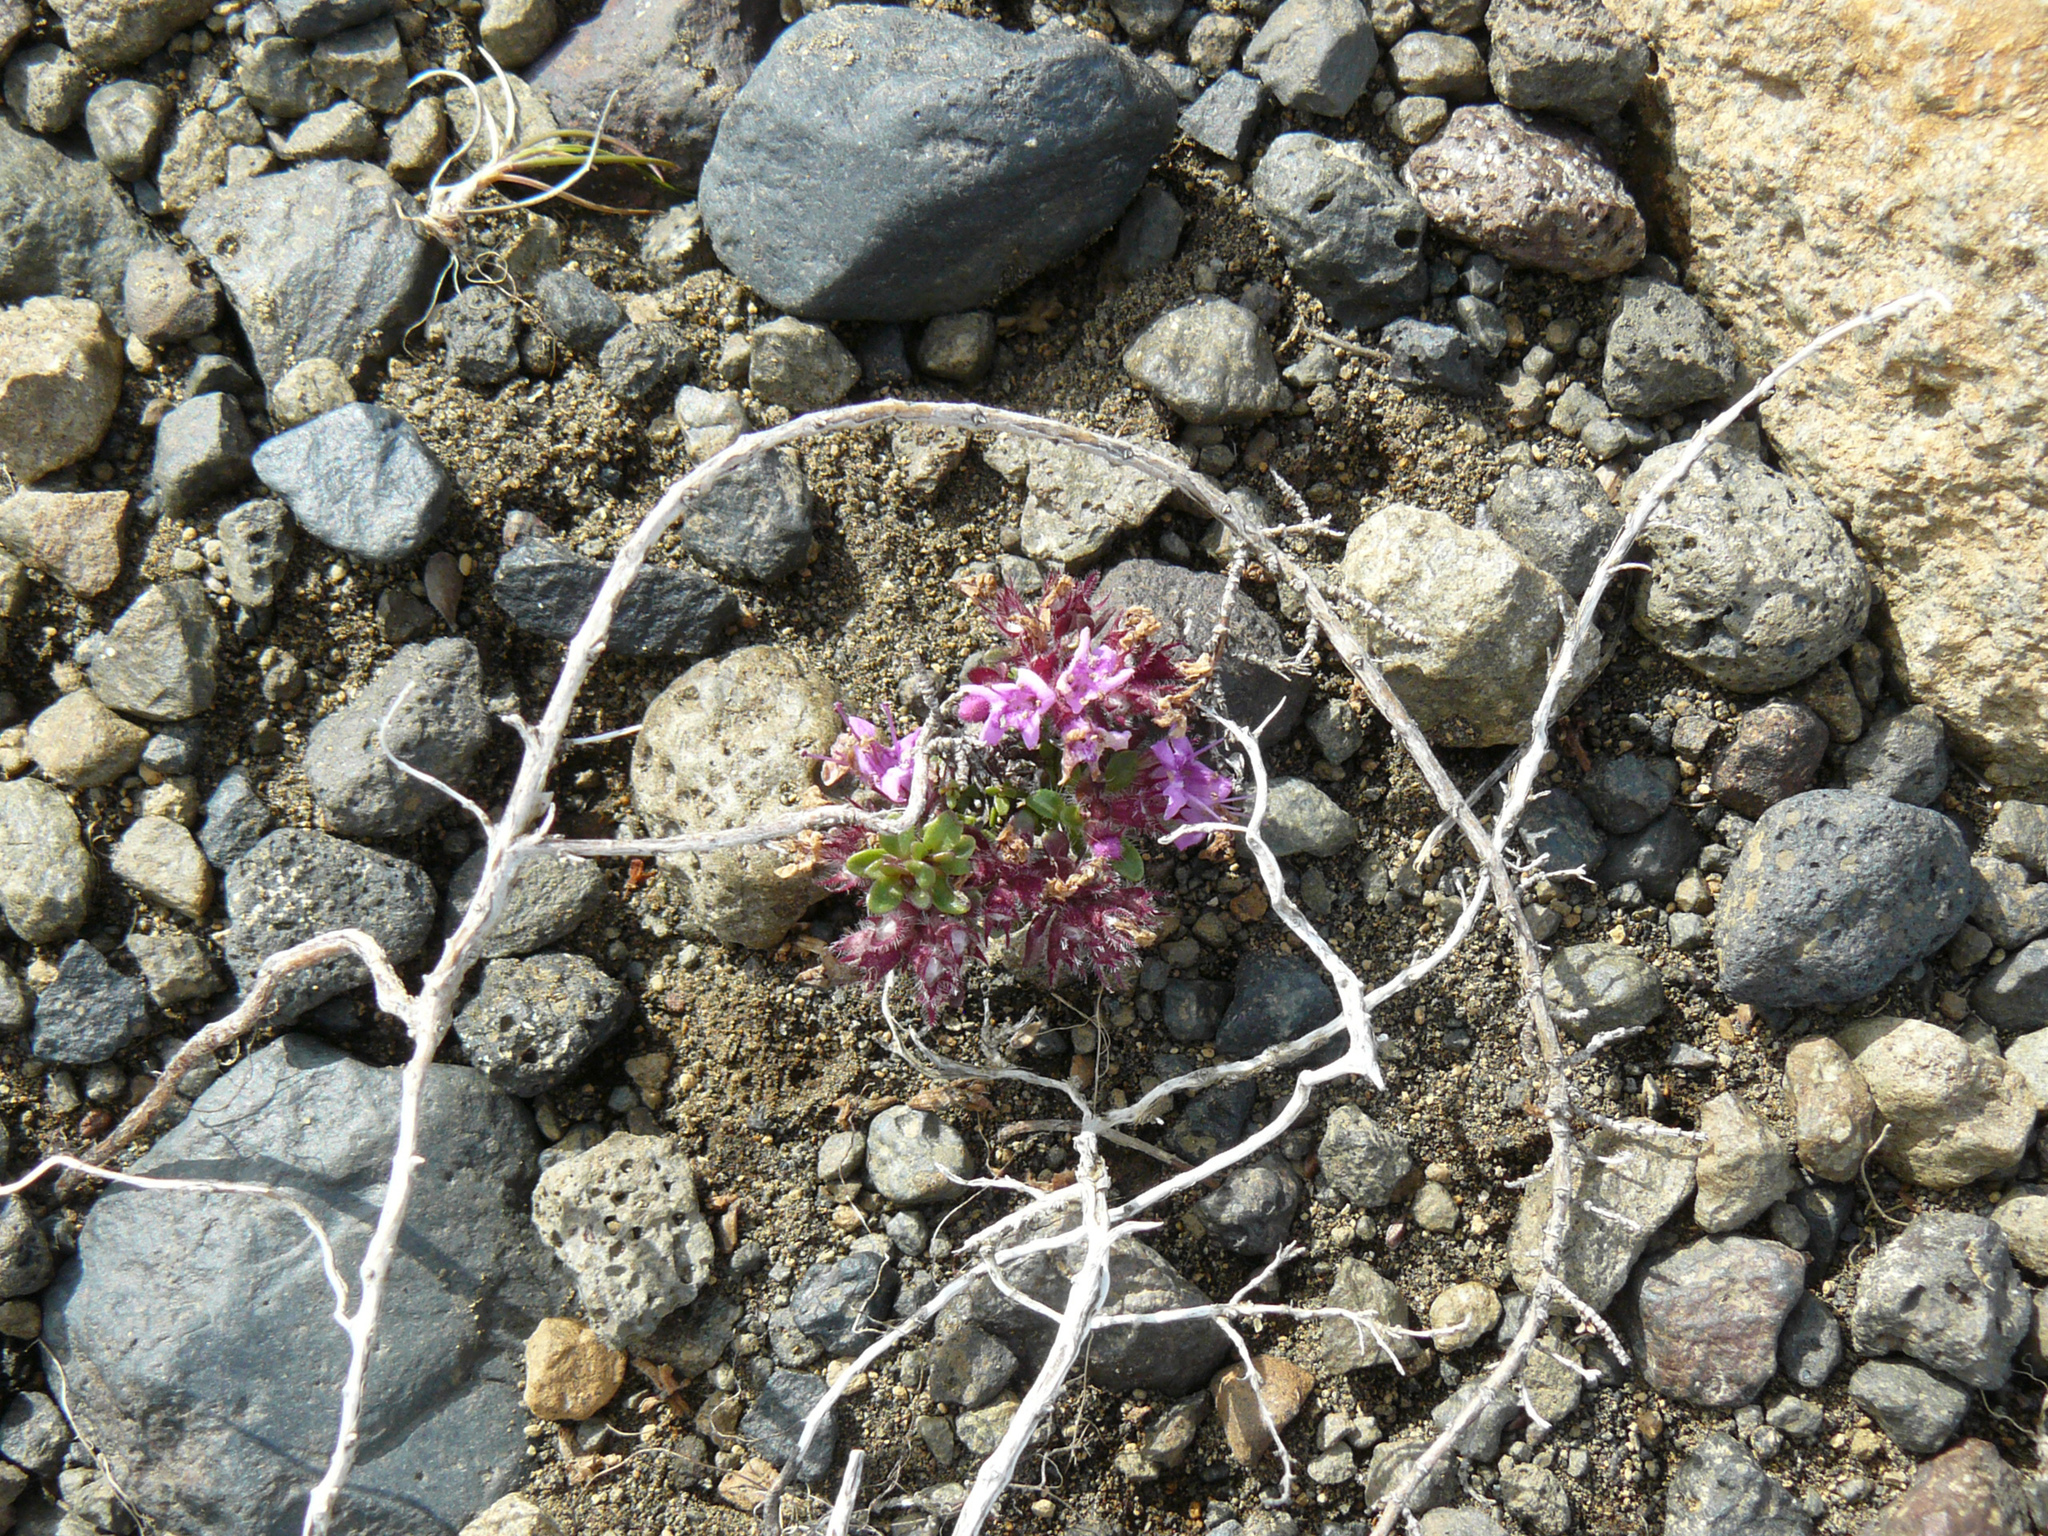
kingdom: Plantae
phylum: Tracheophyta
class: Magnoliopsida
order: Lamiales
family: Lamiaceae
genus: Thymus
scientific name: Thymus praecox
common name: Wild thyme
